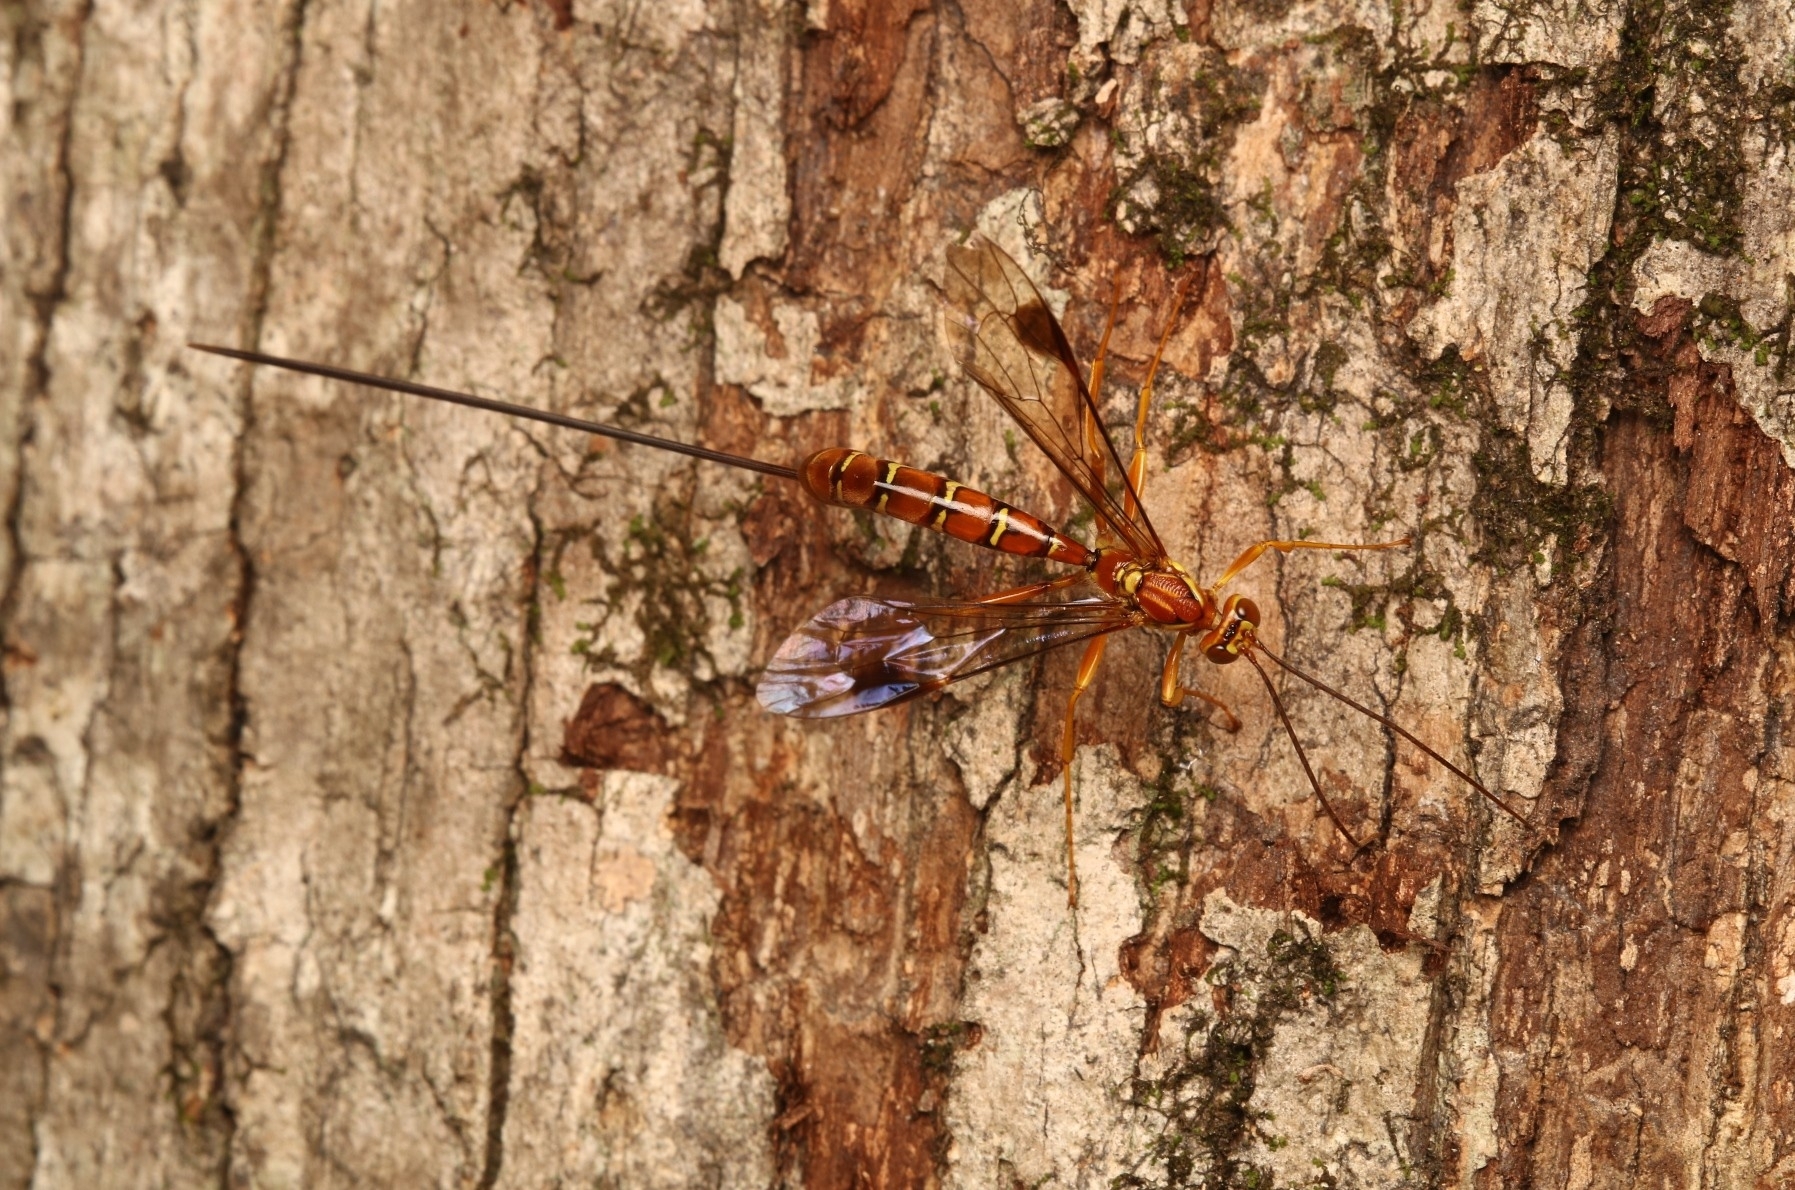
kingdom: Animalia
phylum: Arthropoda
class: Insecta
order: Hymenoptera
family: Ichneumonidae
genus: Megarhyssa
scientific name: Megarhyssa greenei
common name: Greene's giant ichneumonid wasp
